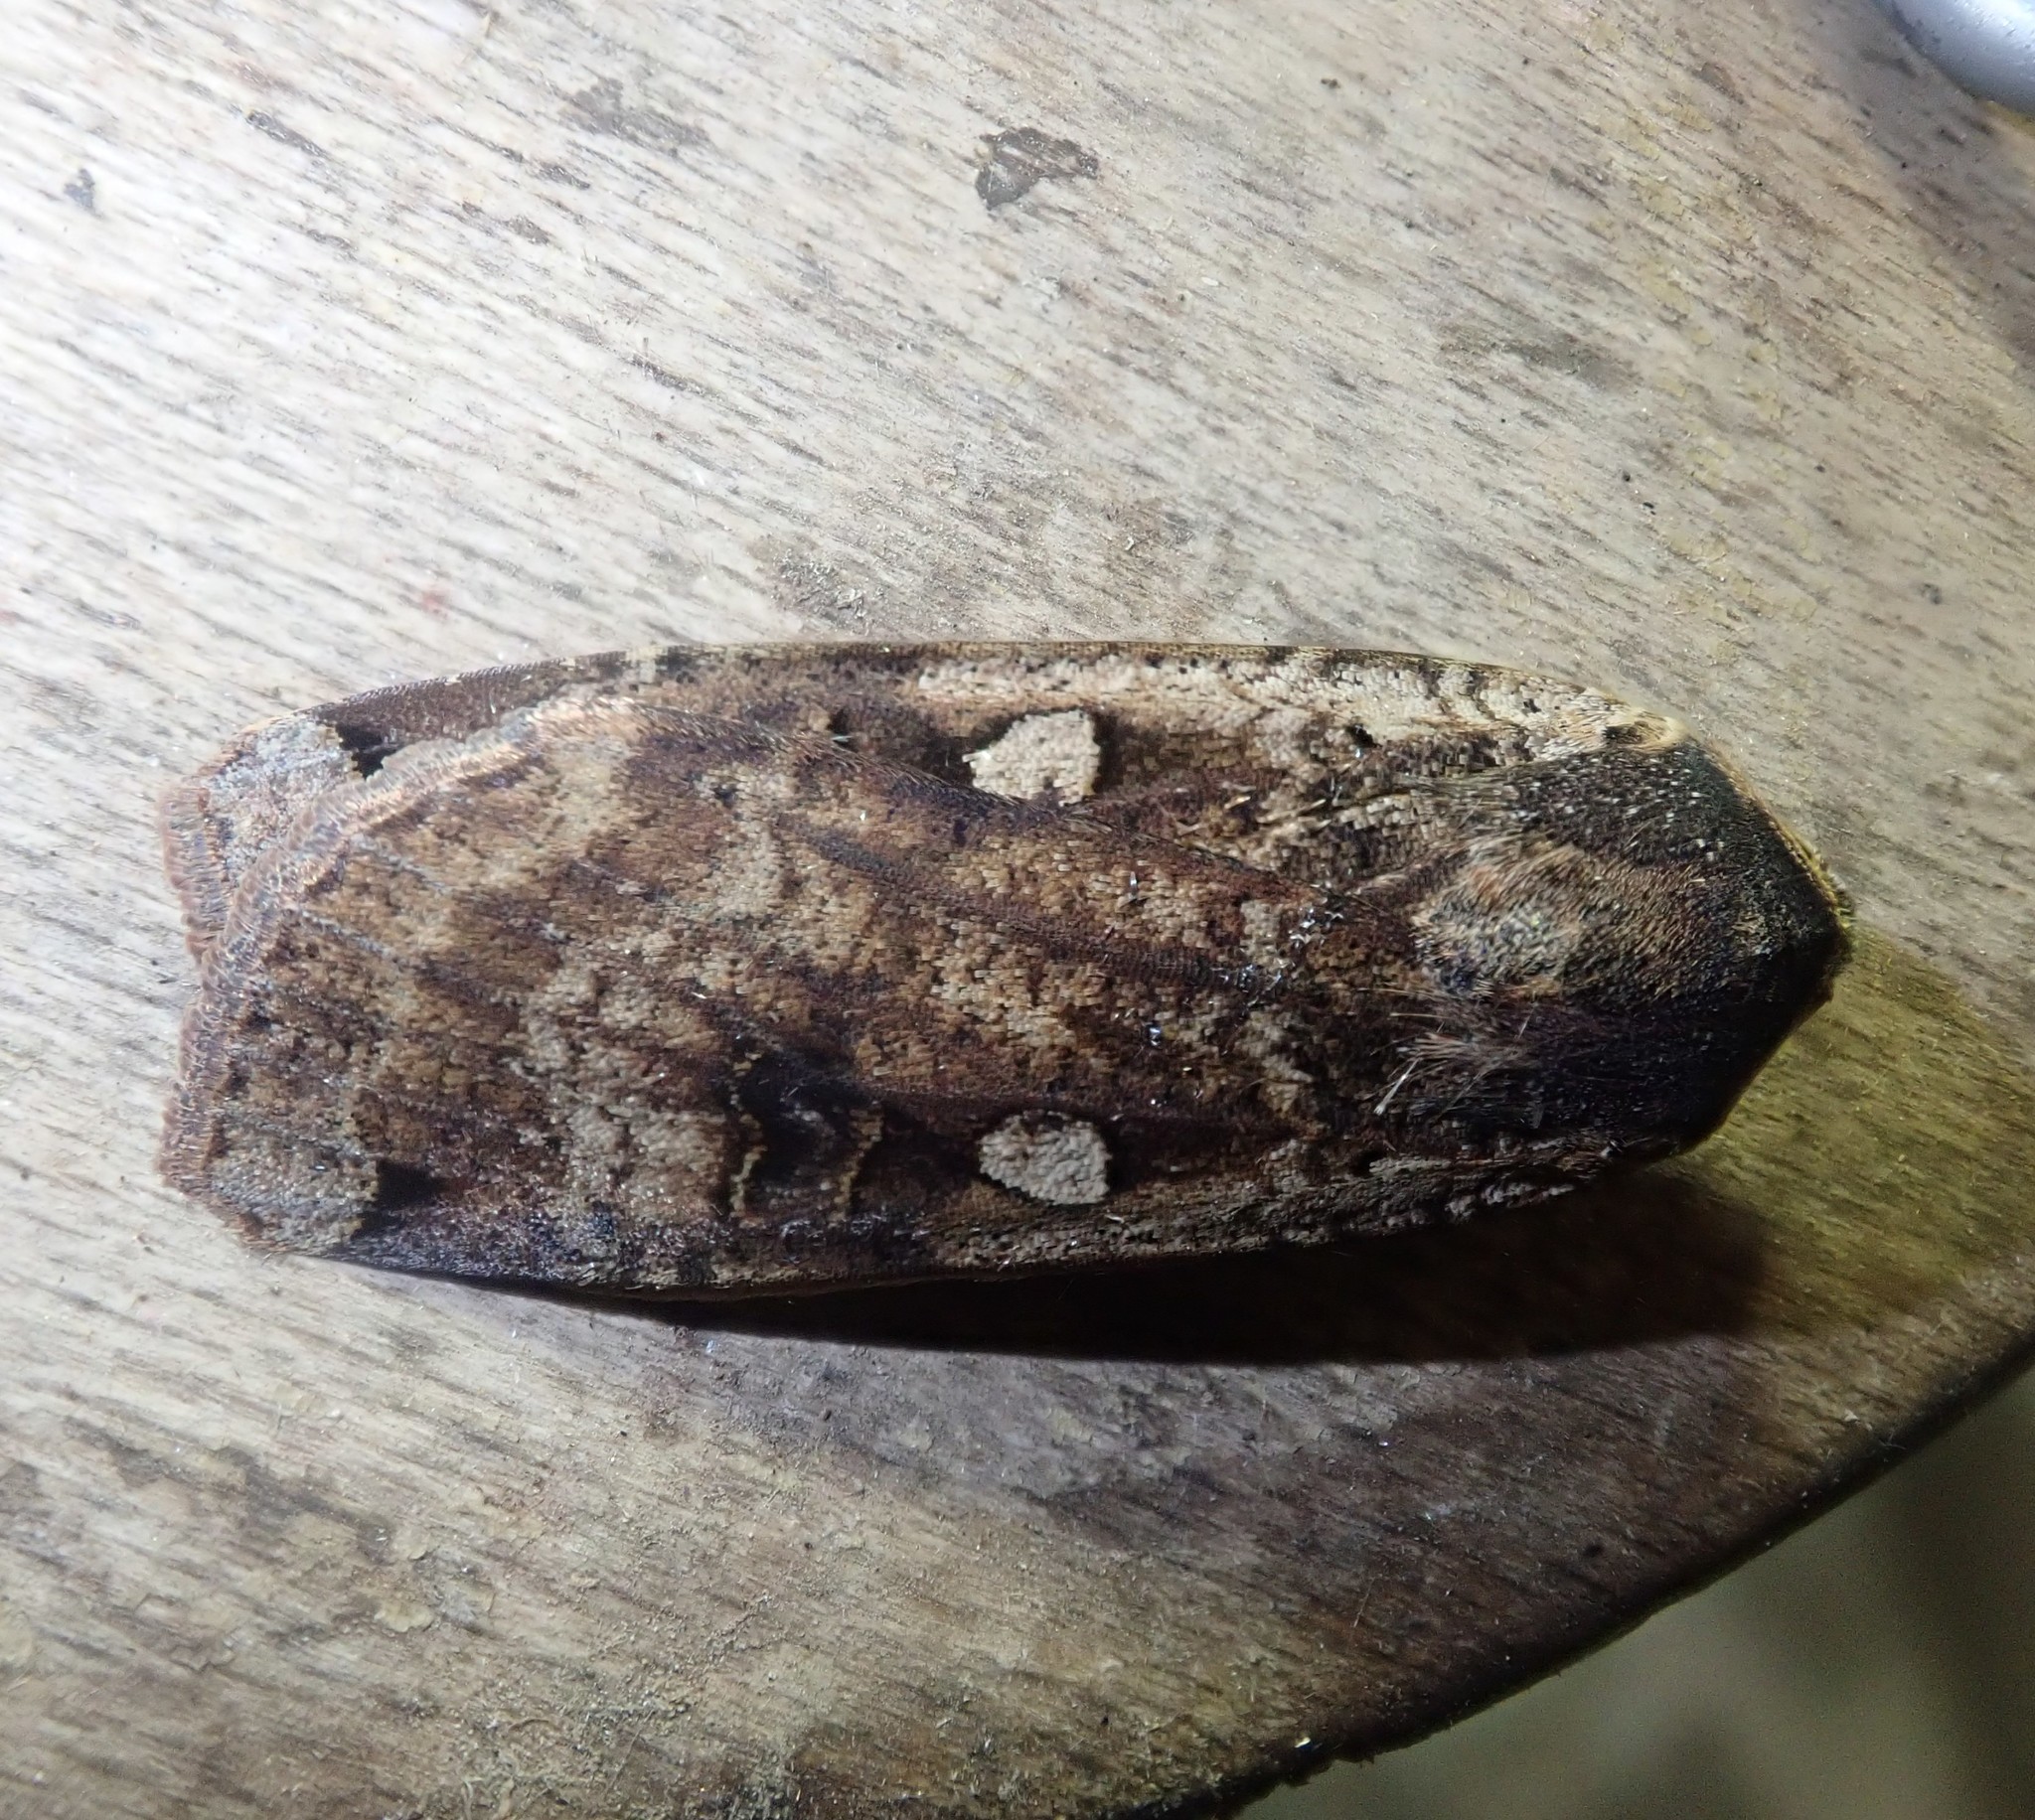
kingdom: Animalia
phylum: Arthropoda
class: Insecta
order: Lepidoptera
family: Noctuidae
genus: Noctua
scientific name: Noctua pronuba
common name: Large yellow underwing
